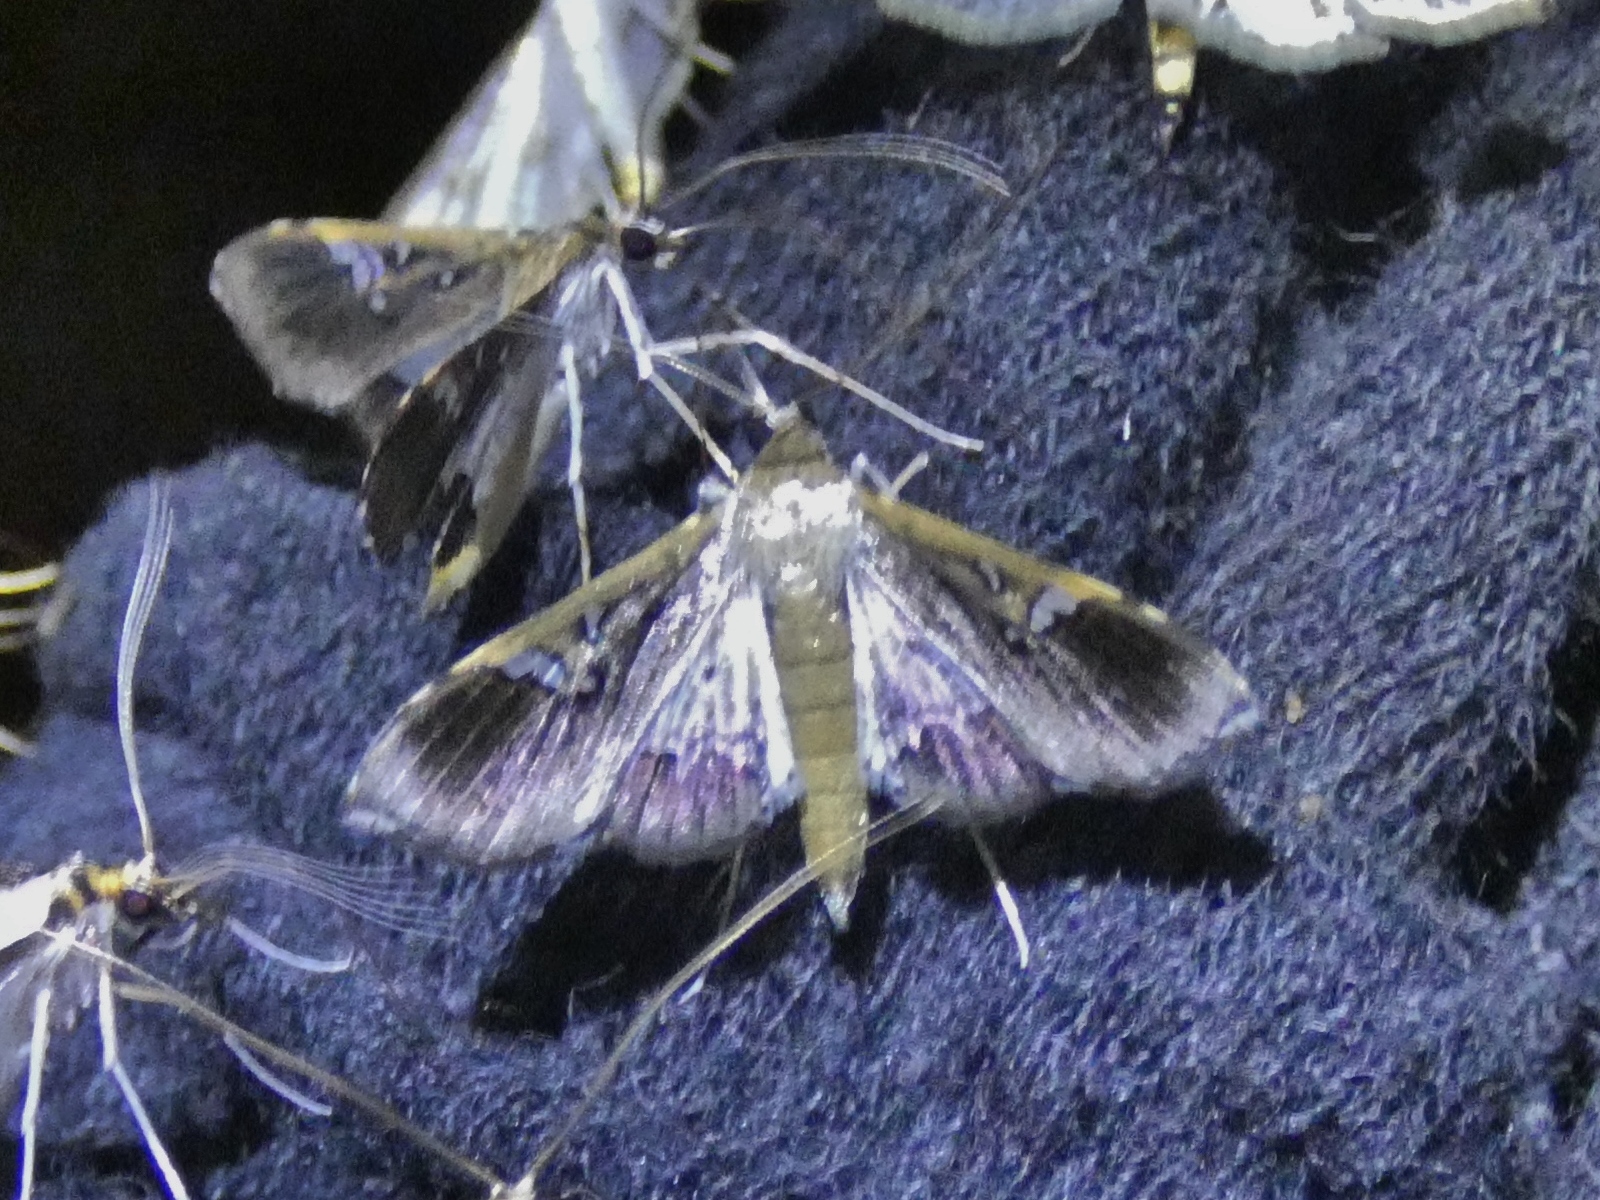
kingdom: Animalia
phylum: Arthropoda
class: Insecta
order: Lepidoptera
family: Crambidae
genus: Maruca
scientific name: Maruca vitrata
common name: Maruca pod borer
